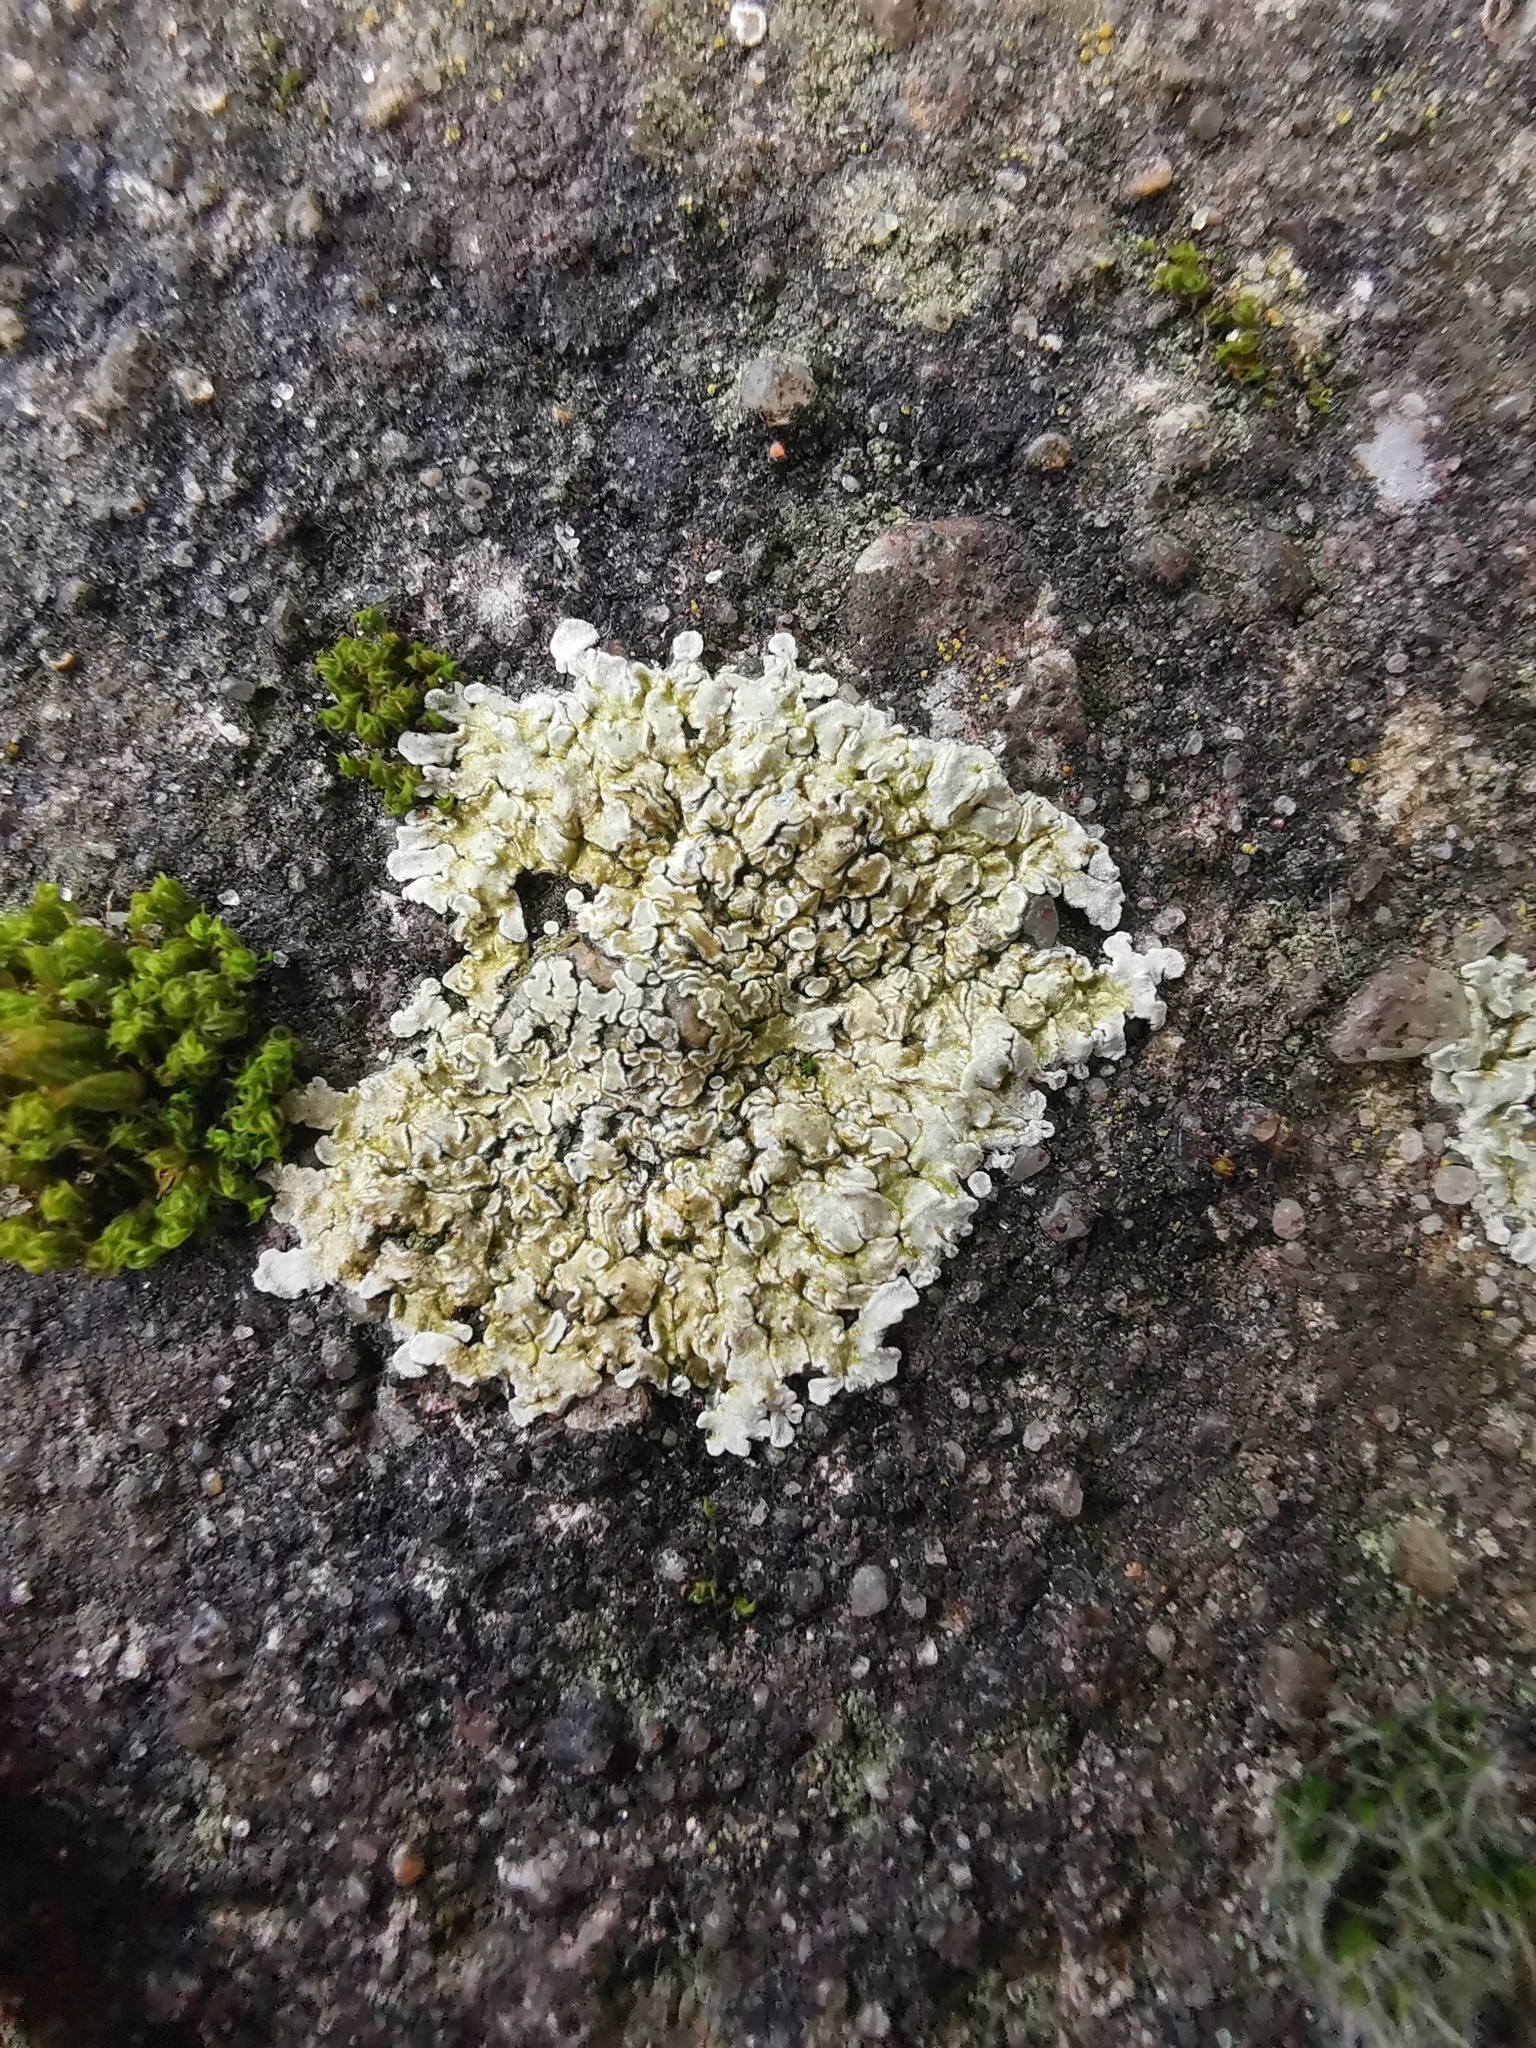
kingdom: Fungi
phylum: Ascomycota
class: Lecanoromycetes
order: Lecanorales
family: Lecanoraceae
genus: Protoparmeliopsis
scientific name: Protoparmeliopsis muralis
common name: Stonewall rim lichen
